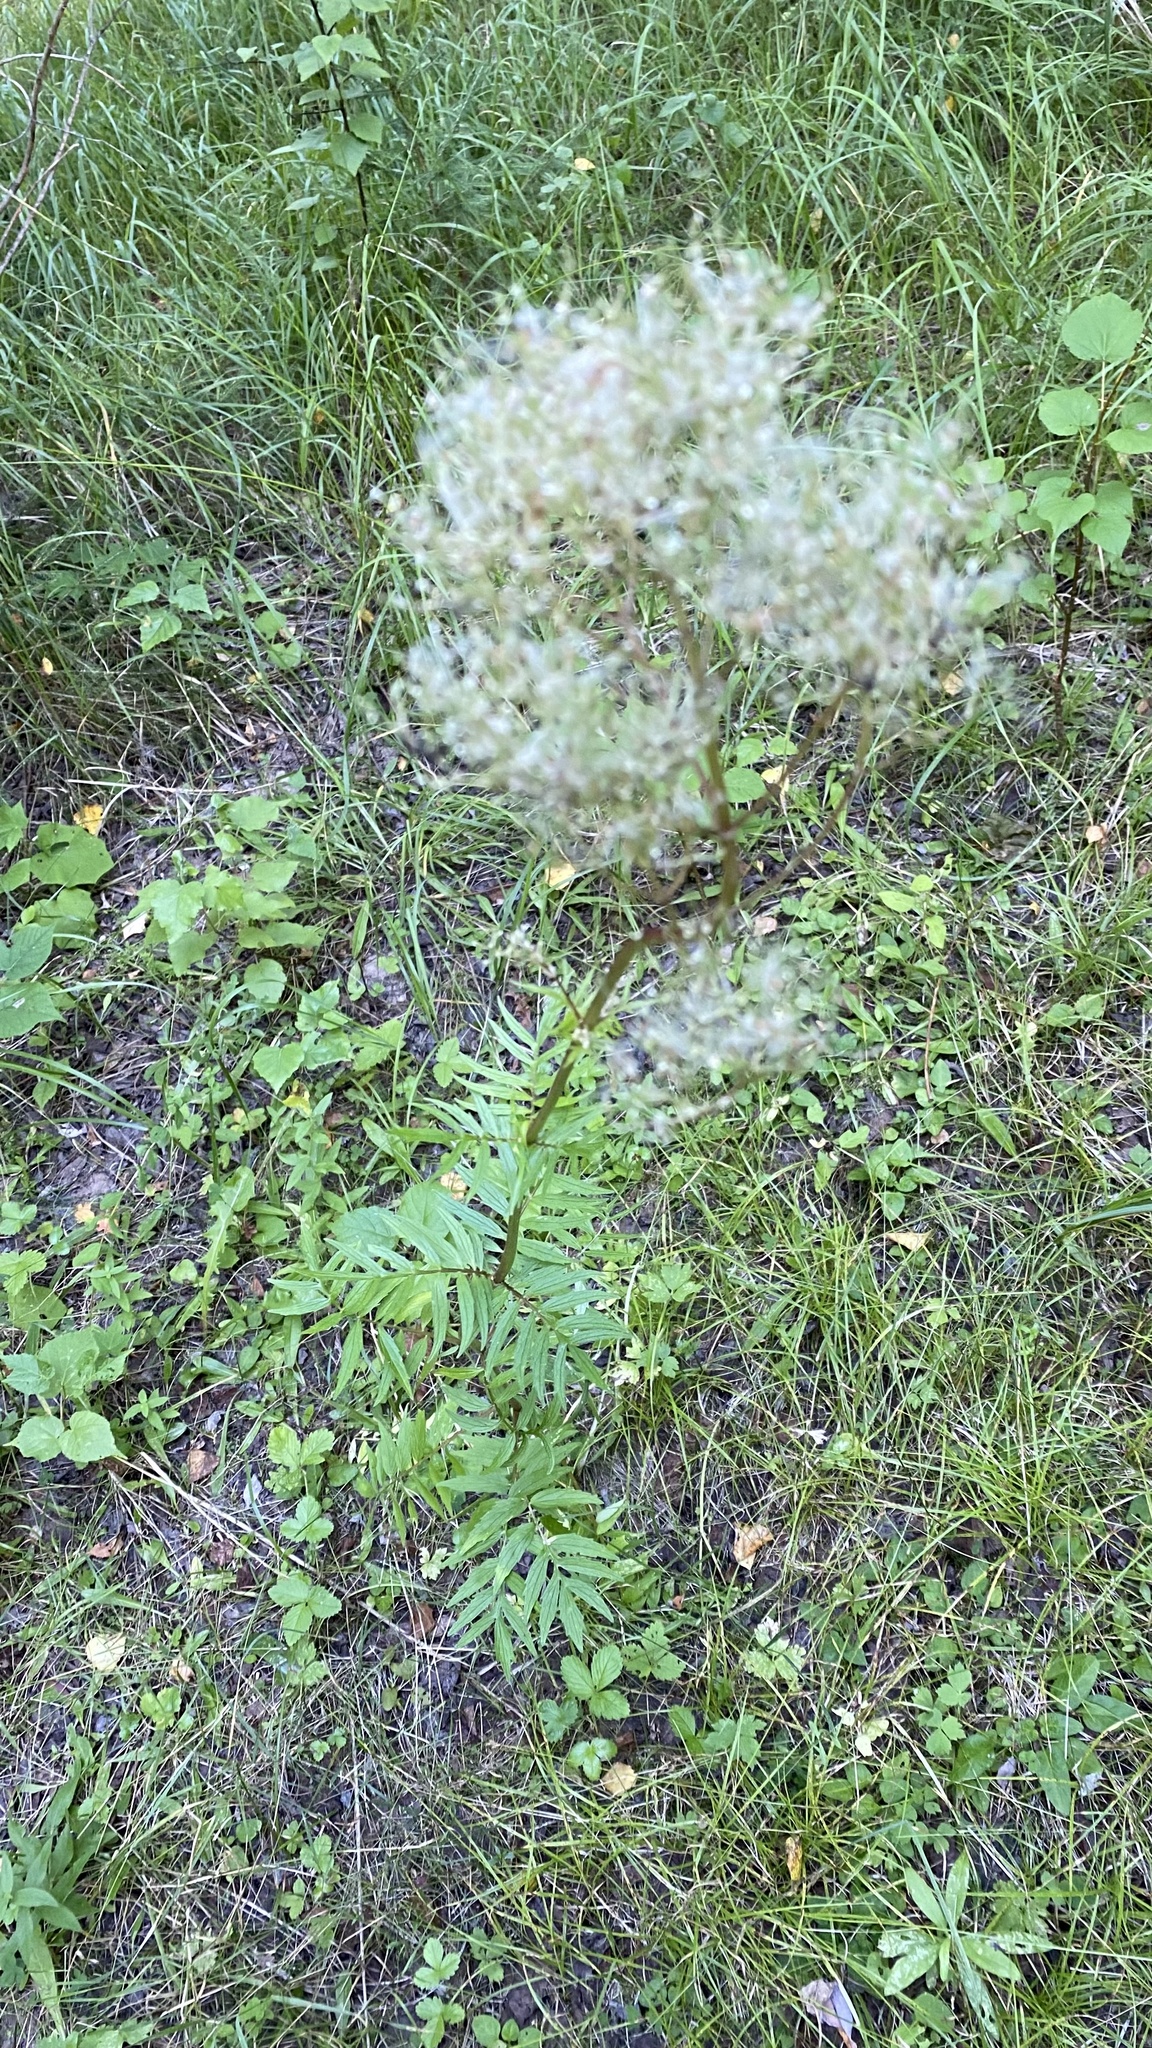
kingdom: Plantae
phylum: Tracheophyta
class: Magnoliopsida
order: Dipsacales
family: Caprifoliaceae
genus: Valeriana
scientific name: Valeriana officinalis
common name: Common valerian
